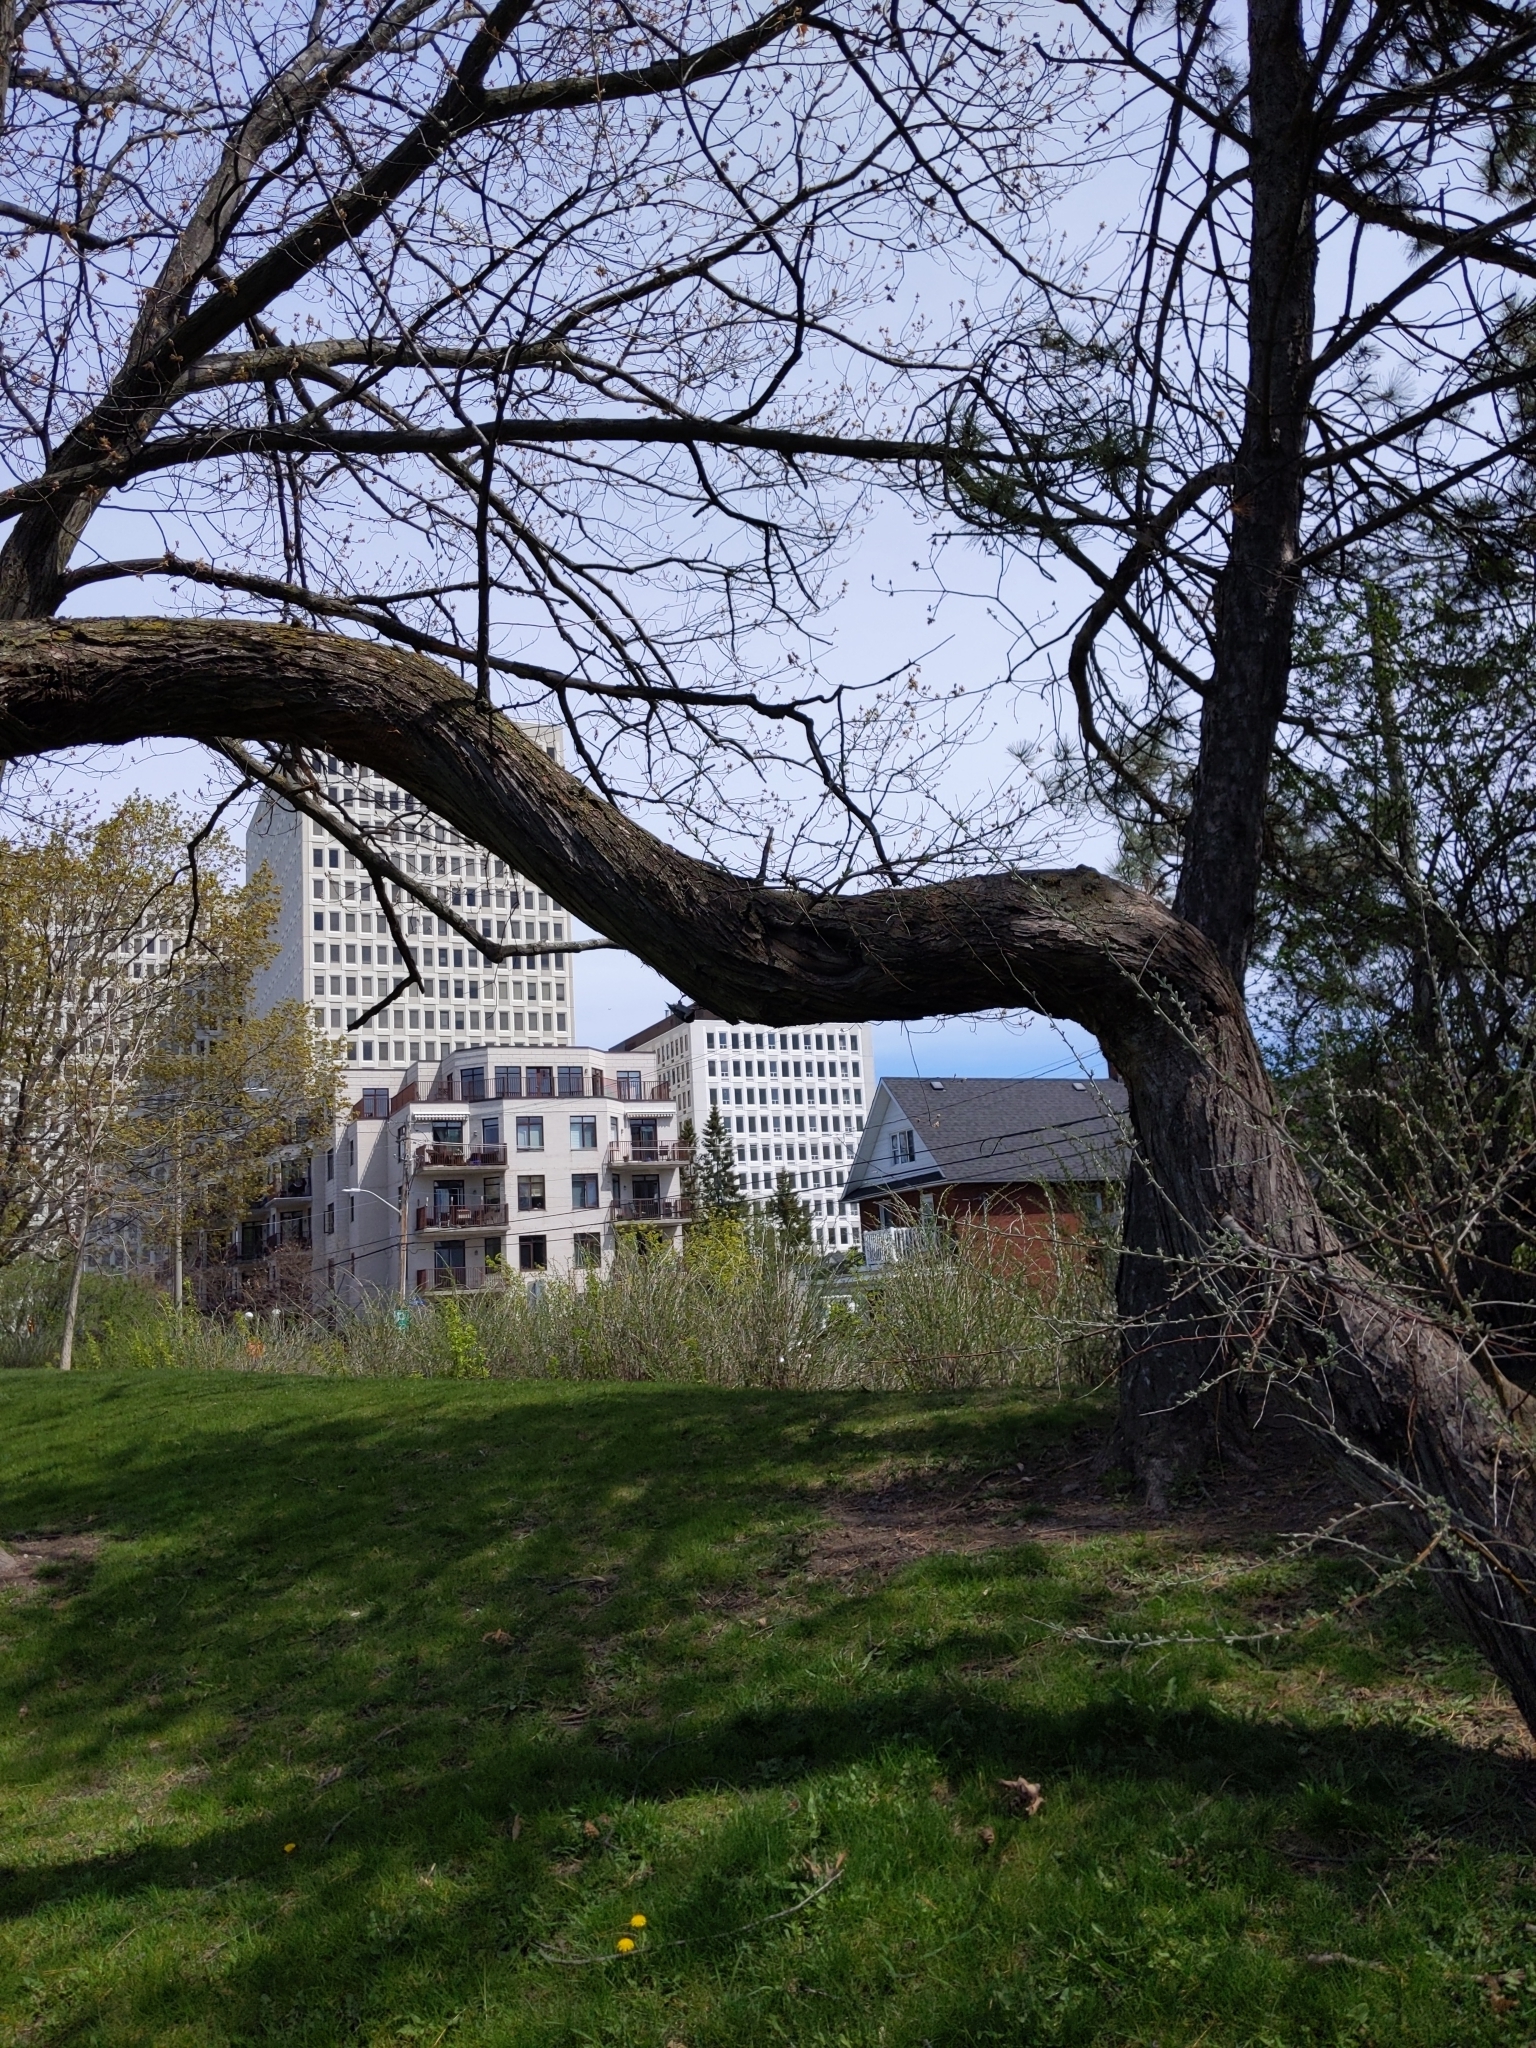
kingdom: Animalia
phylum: Chordata
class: Aves
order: Passeriformes
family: Sittidae
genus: Sitta
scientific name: Sitta carolinensis
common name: White-breasted nuthatch
